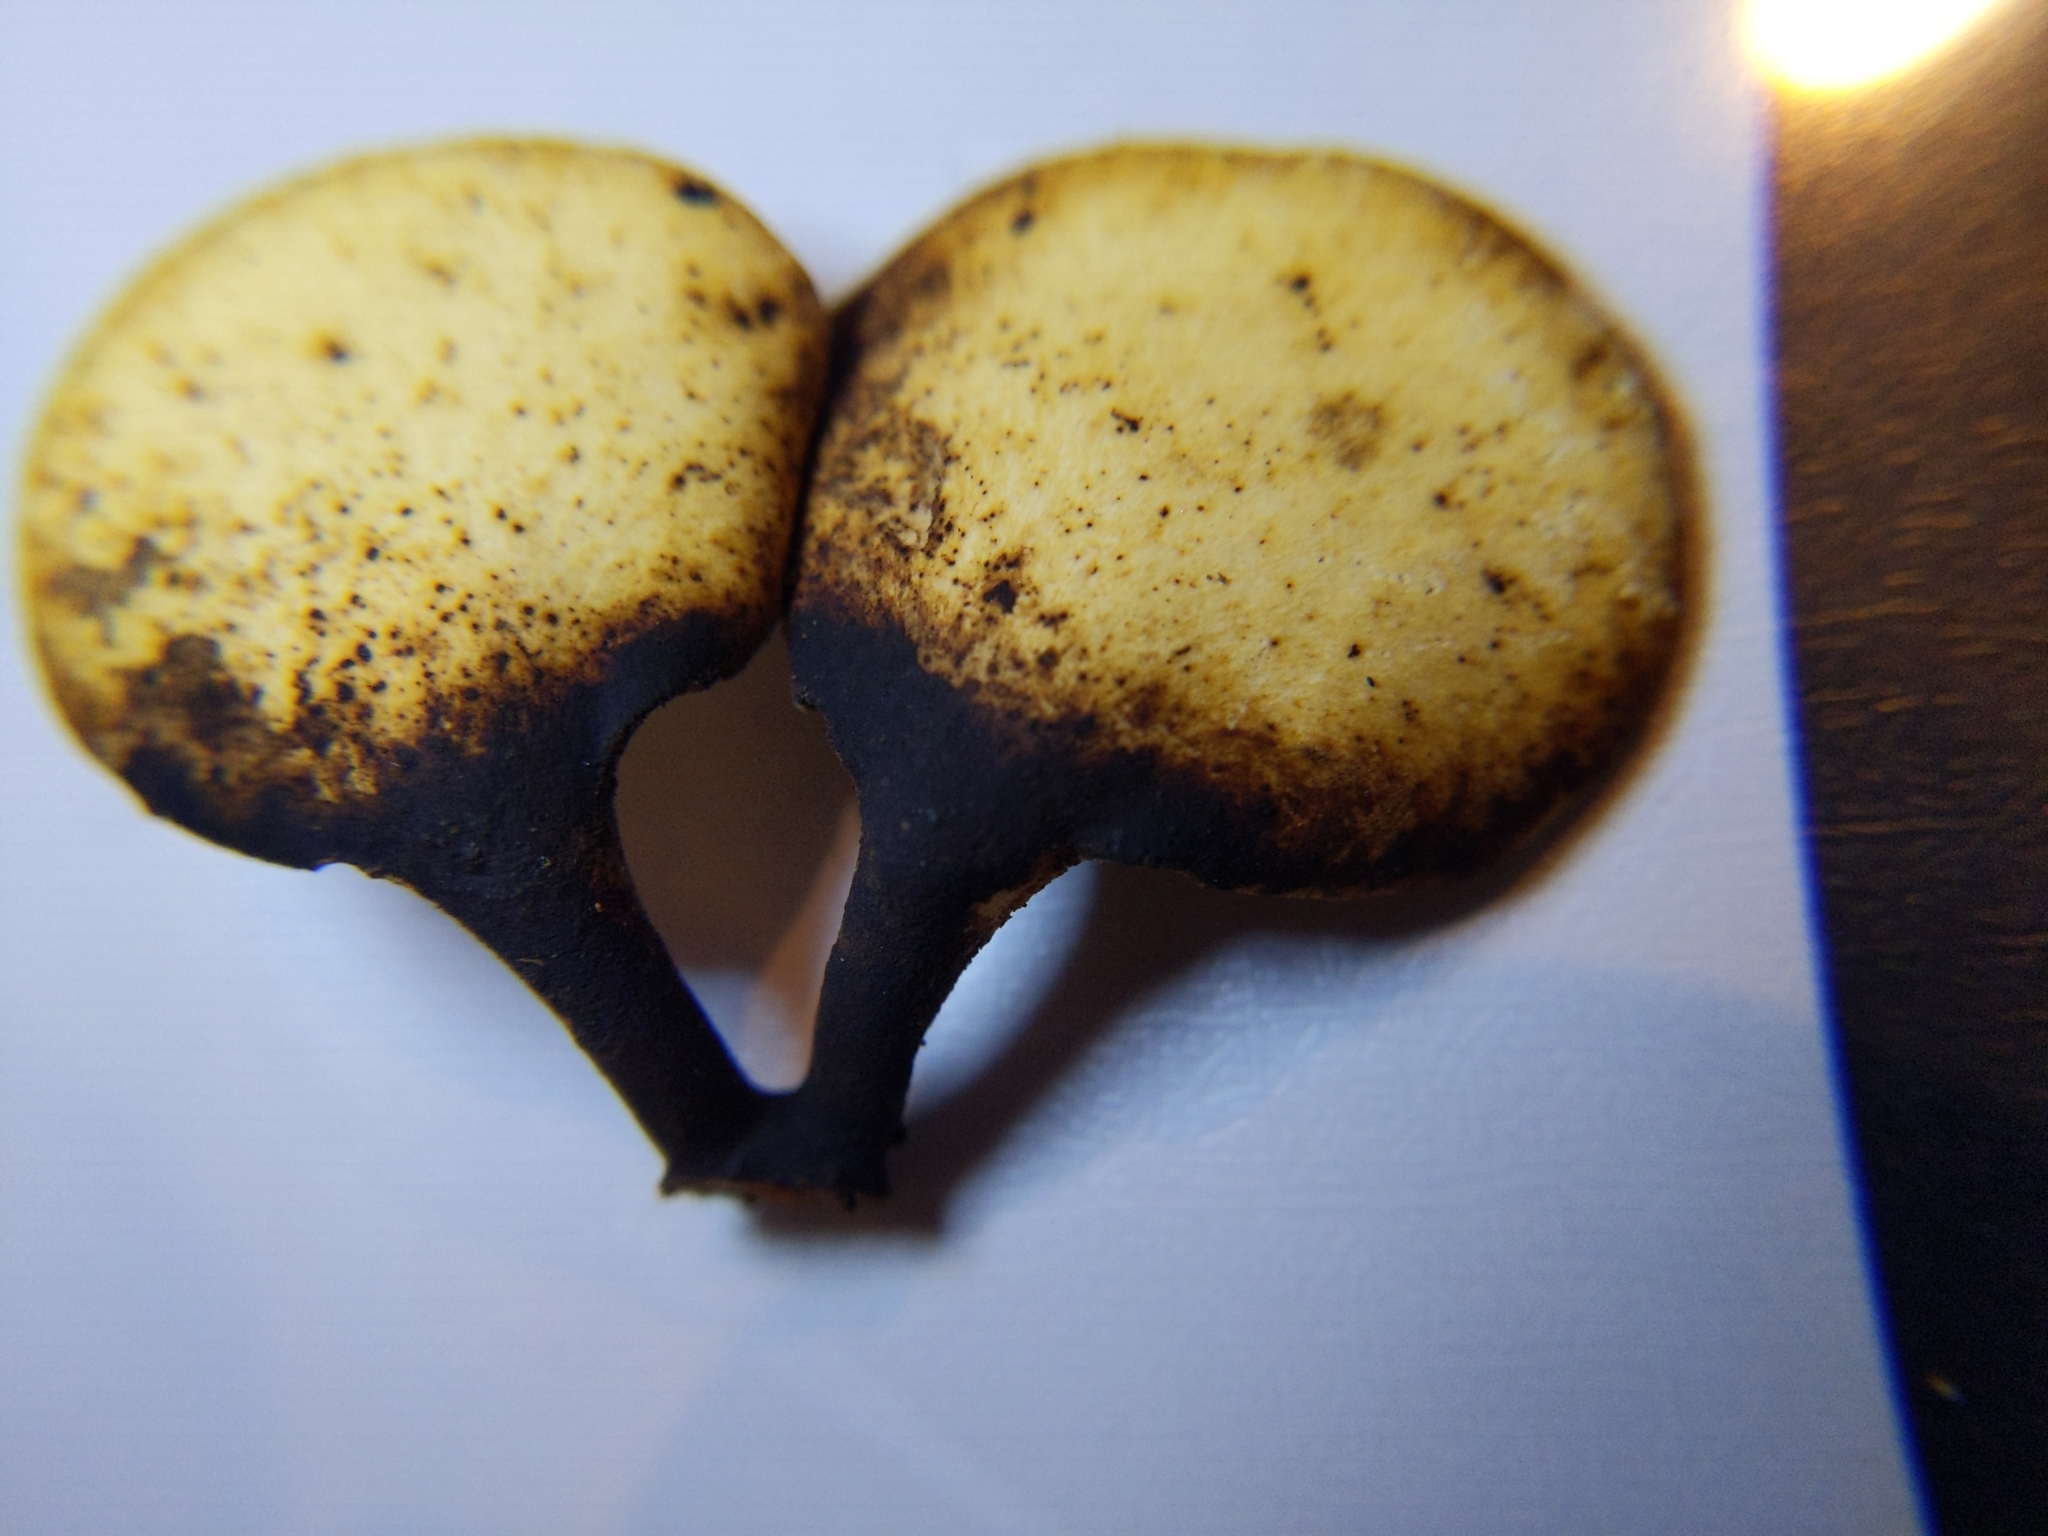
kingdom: Fungi
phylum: Basidiomycota
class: Agaricomycetes
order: Polyporales
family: Polyporaceae
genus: Cerioporus
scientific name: Cerioporus varius
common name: Elegant polypore
